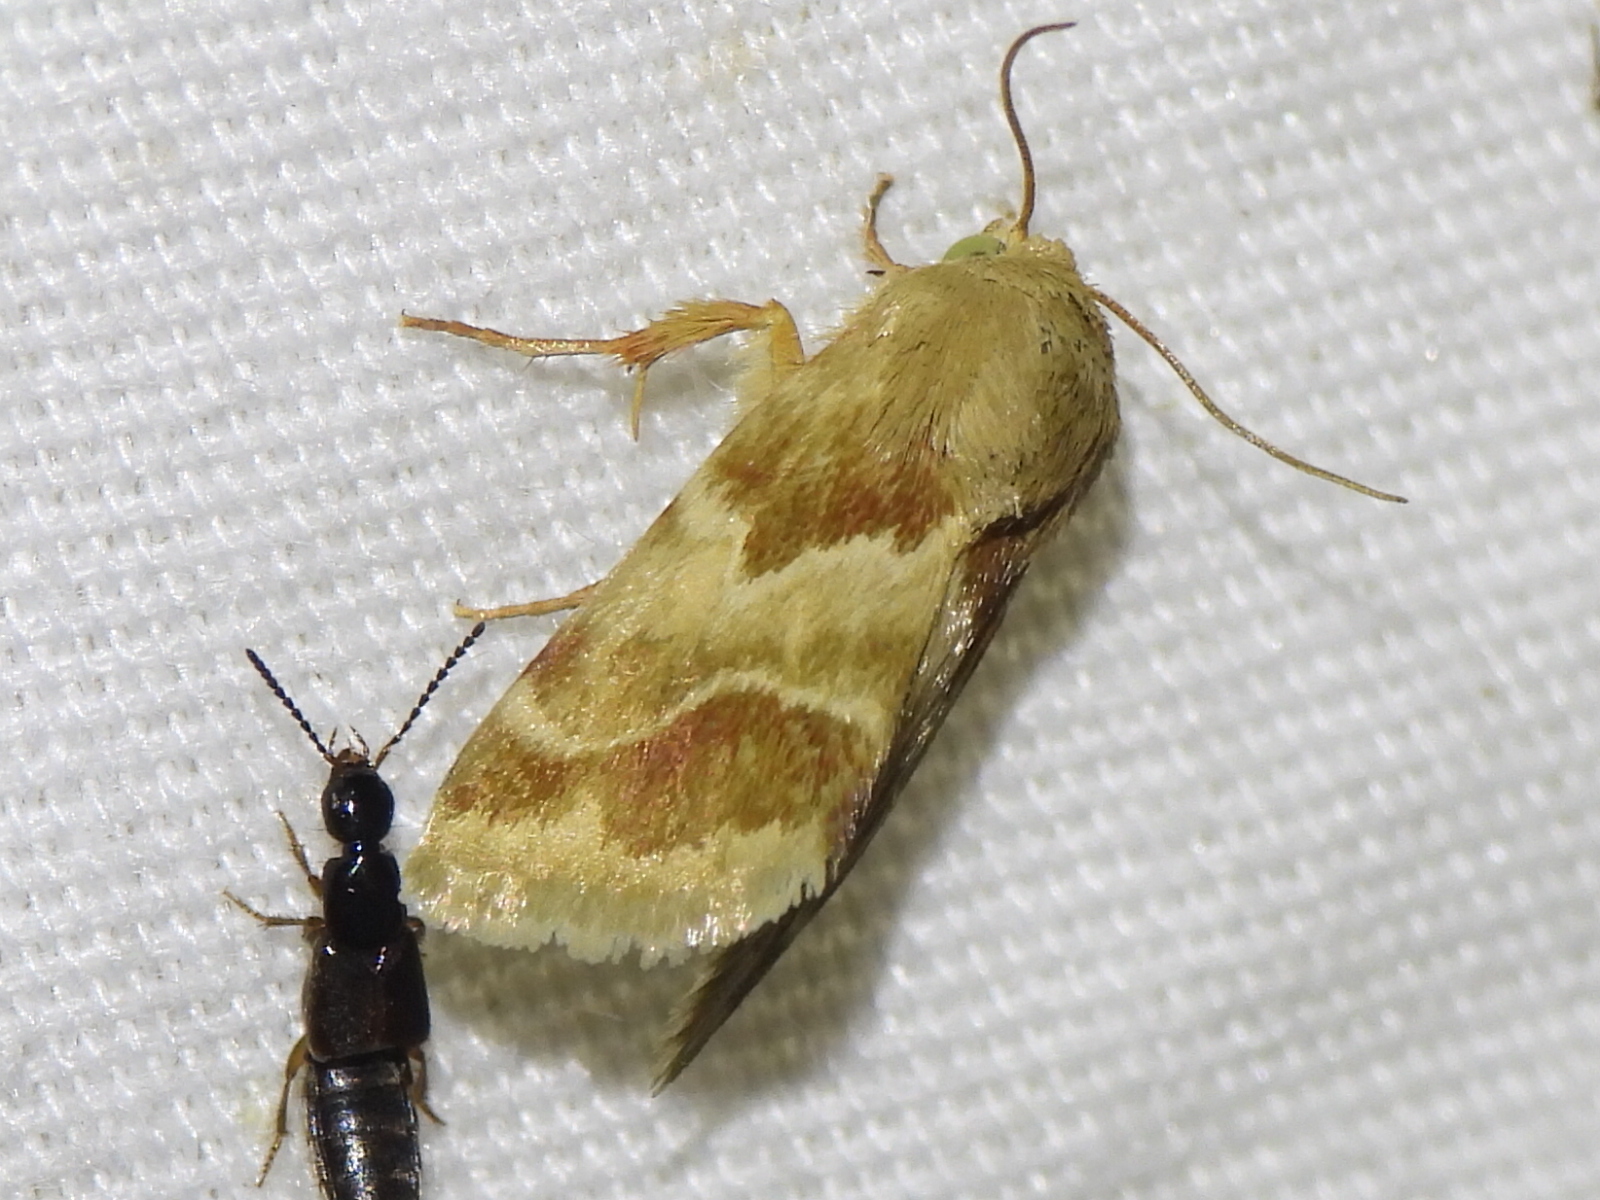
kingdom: Animalia
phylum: Arthropoda
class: Insecta
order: Lepidoptera
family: Noctuidae
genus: Schinia
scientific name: Schinia lynx
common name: Lynx flower moth
